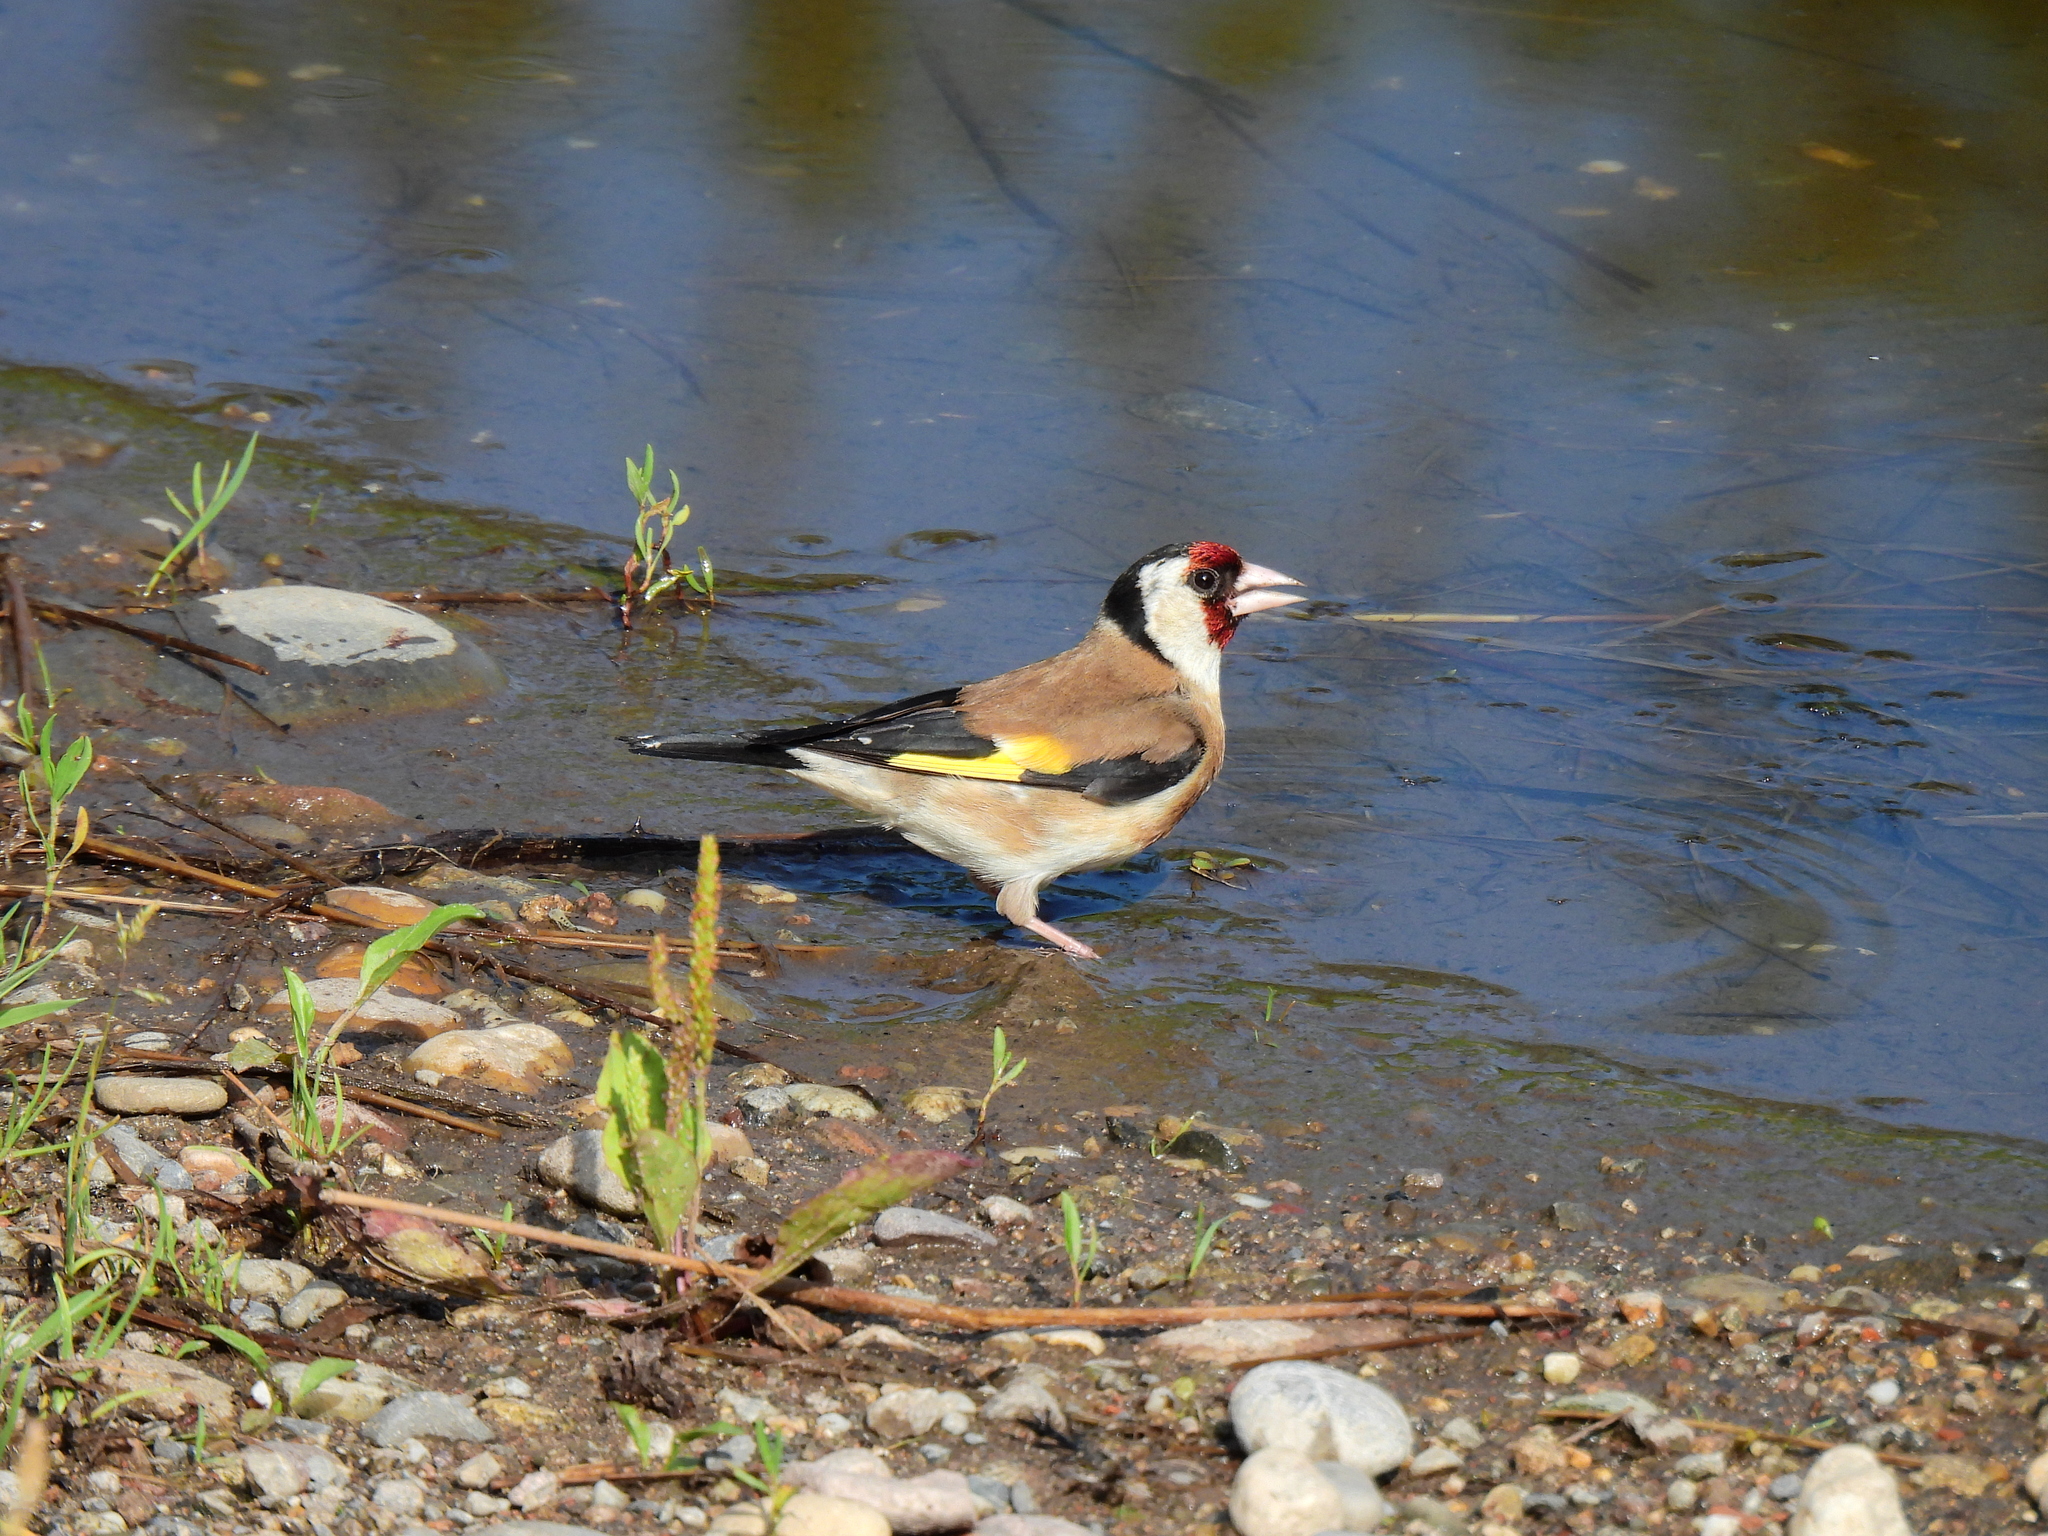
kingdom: Animalia
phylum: Chordata
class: Aves
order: Passeriformes
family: Fringillidae
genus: Carduelis
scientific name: Carduelis carduelis
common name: European goldfinch
